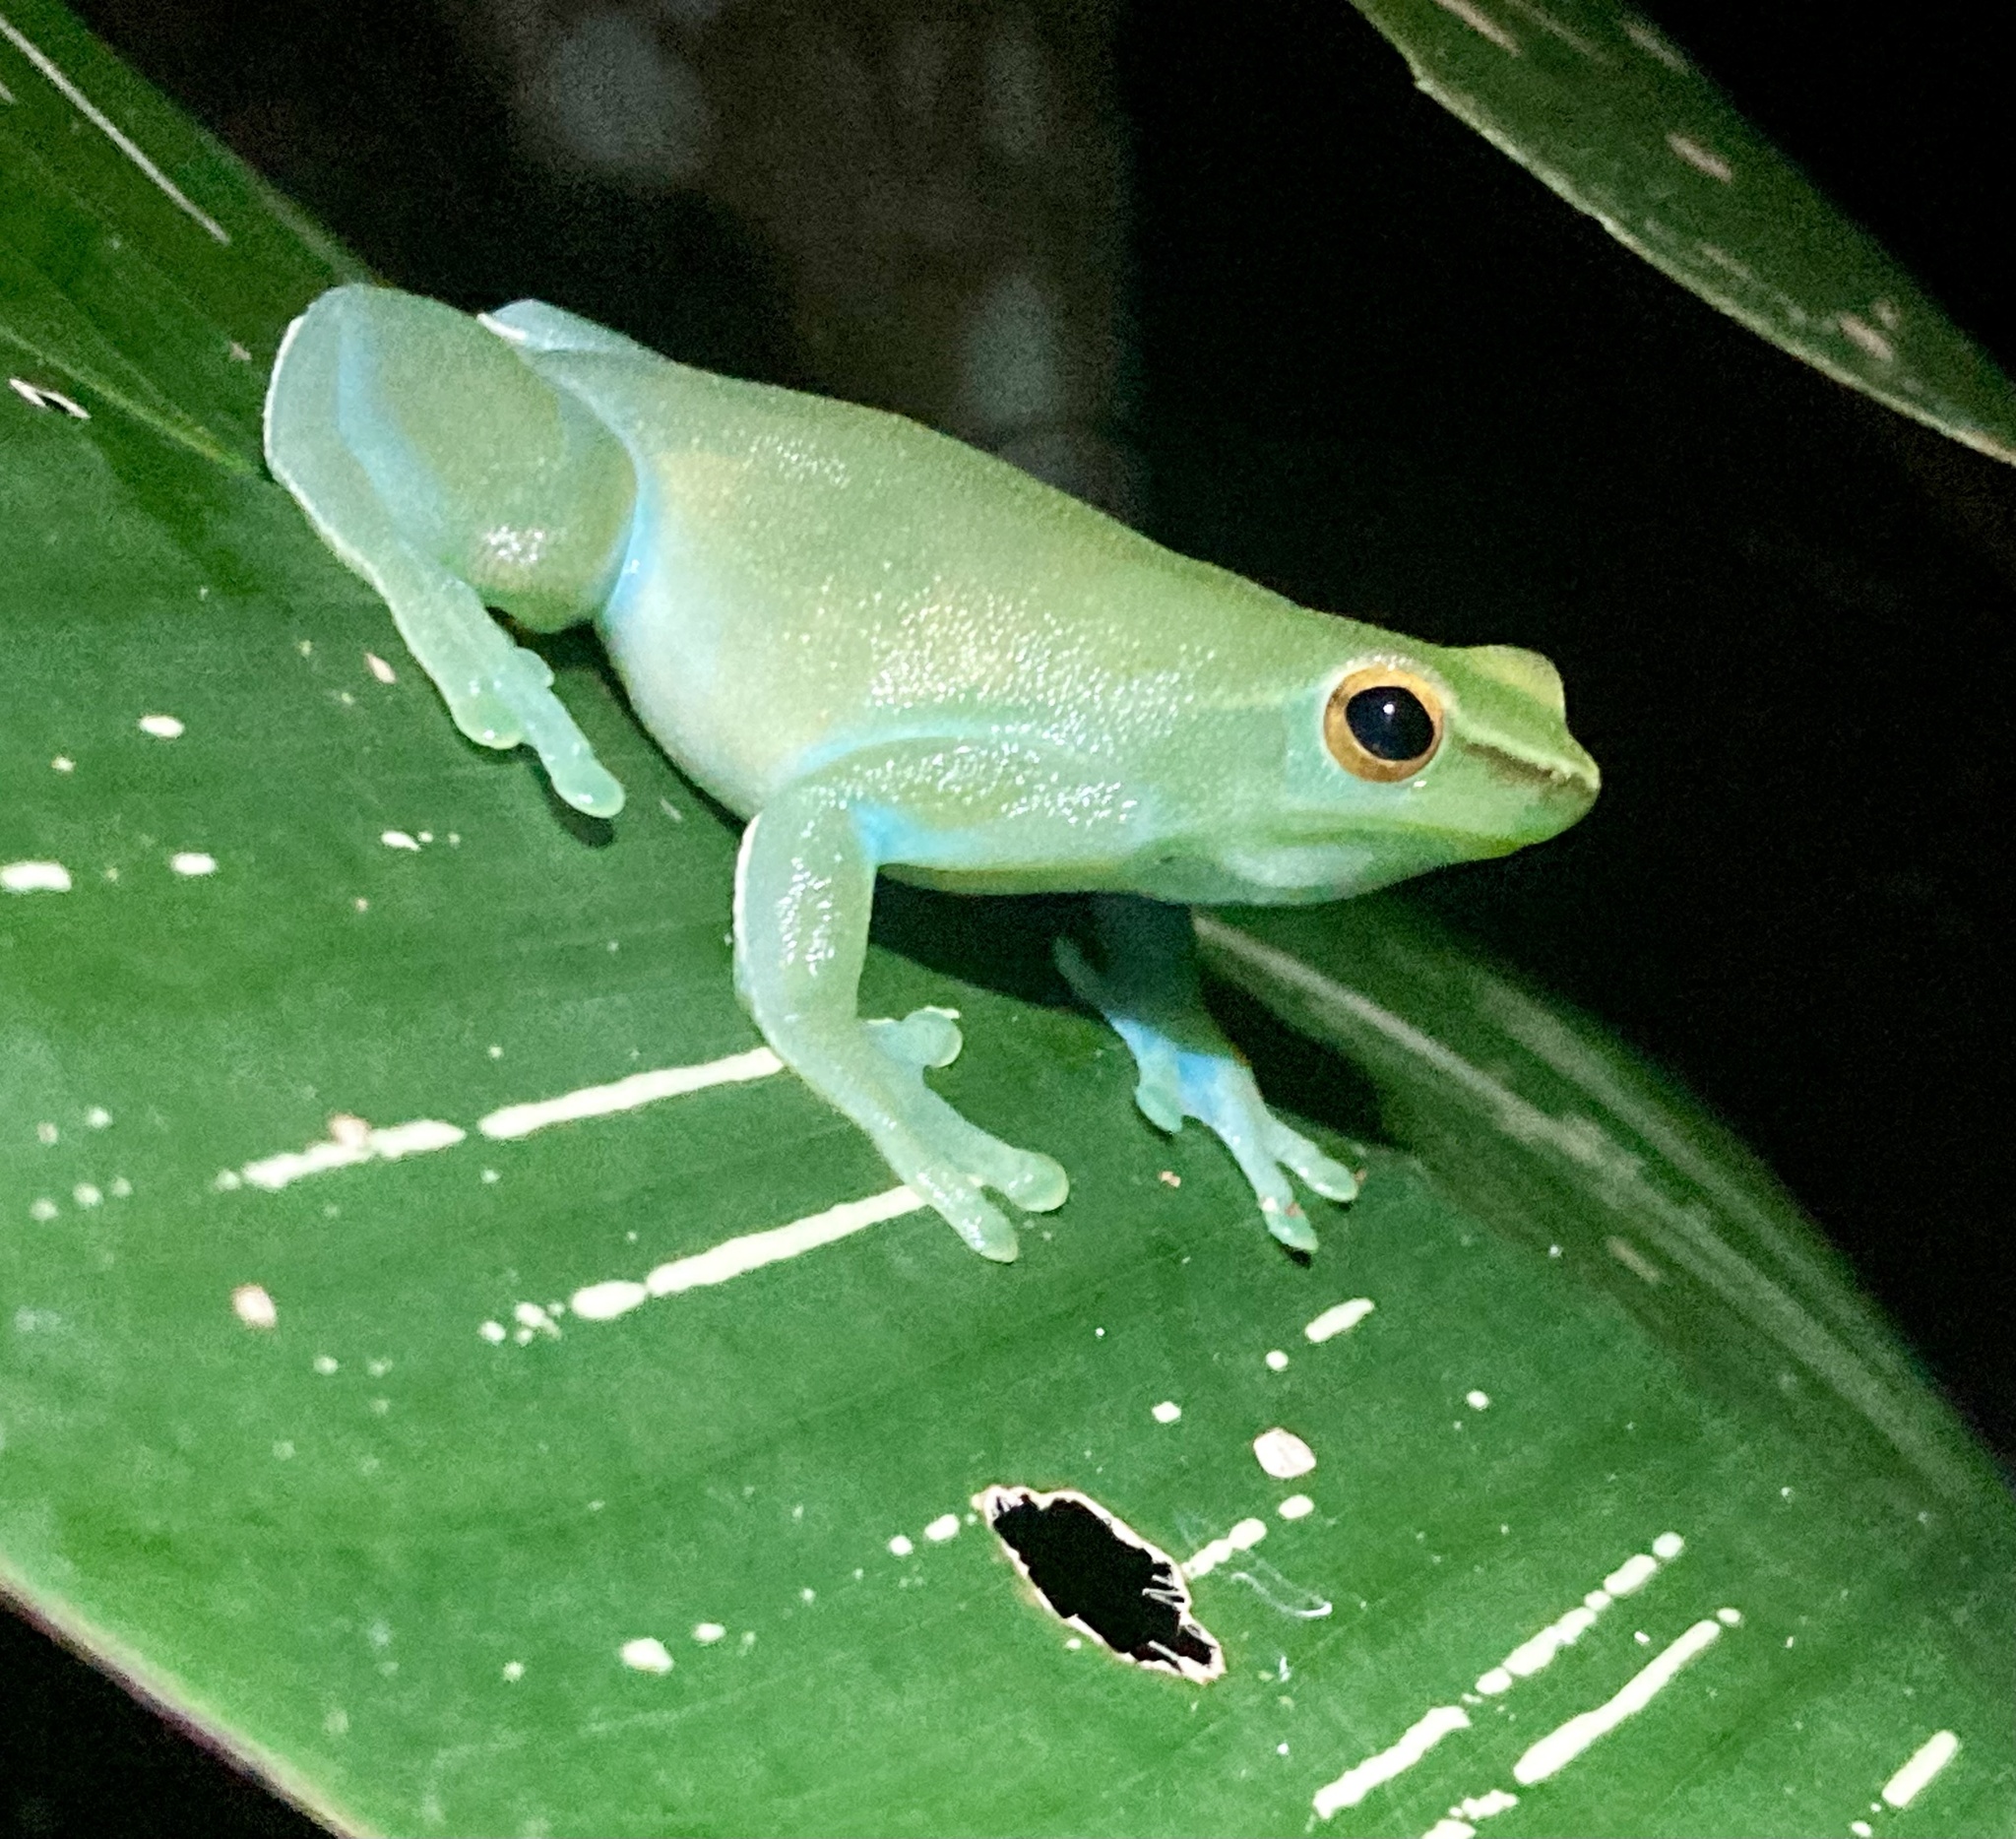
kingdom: Animalia
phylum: Chordata
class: Amphibia
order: Anura
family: Hylidae
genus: Sphaenorhynchus
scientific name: Sphaenorhynchus lacteus
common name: Orinoco lime treefrog
